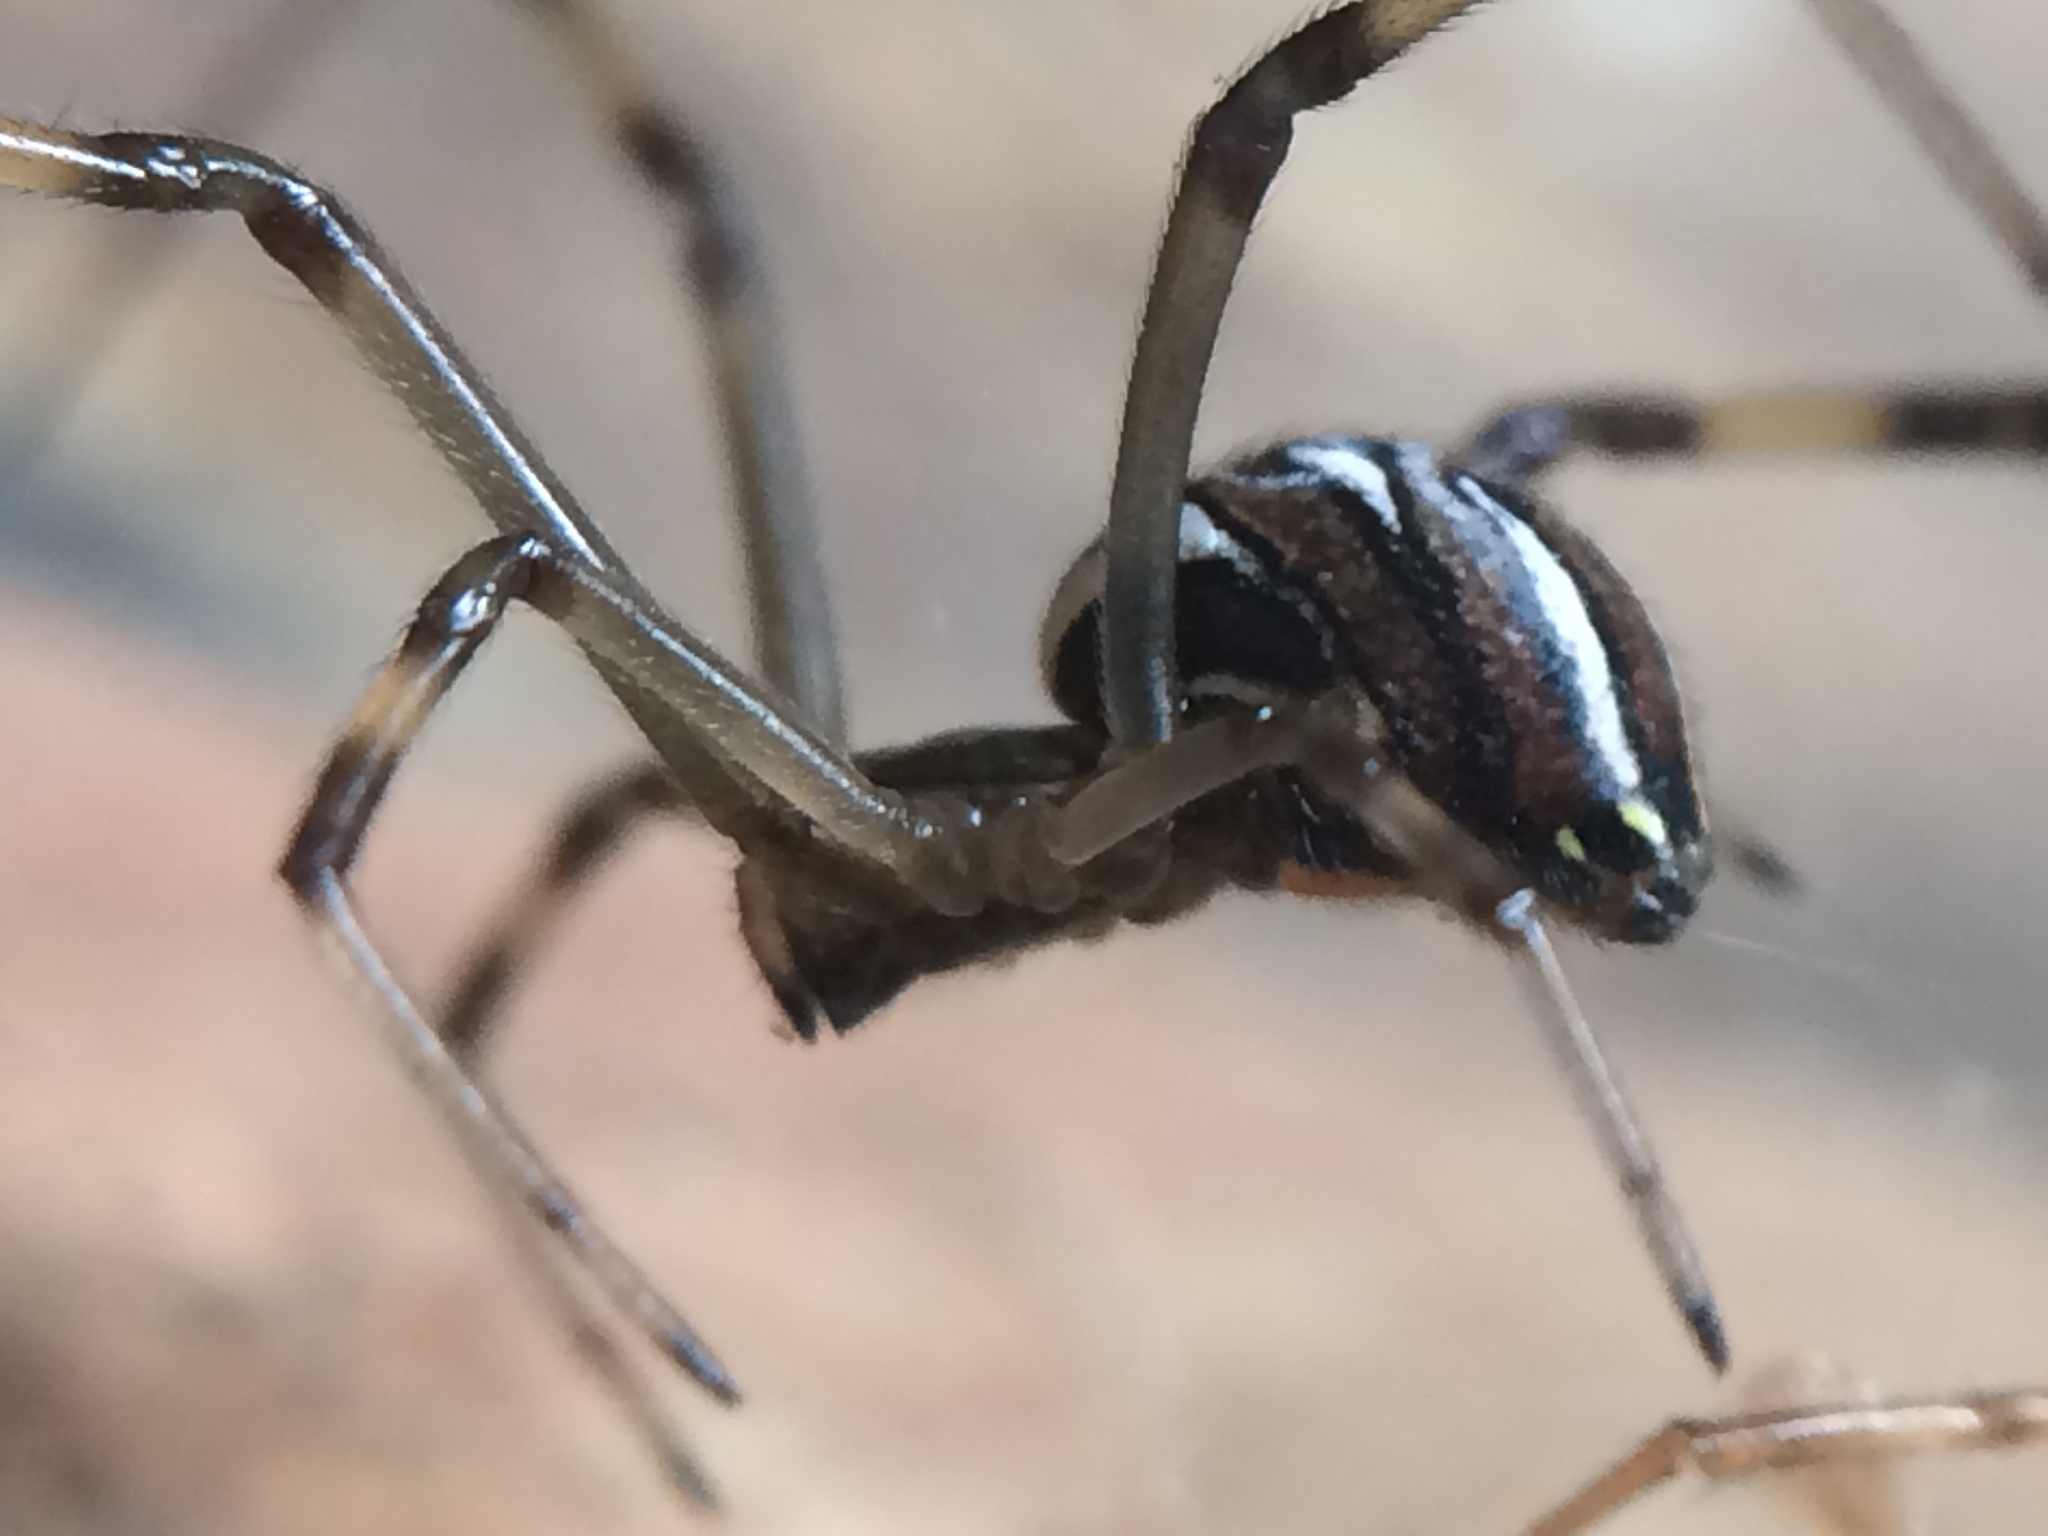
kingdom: Animalia
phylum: Arthropoda
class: Arachnida
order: Araneae
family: Theridiidae
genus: Latrodectus
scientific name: Latrodectus hesperus
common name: Western black widow
